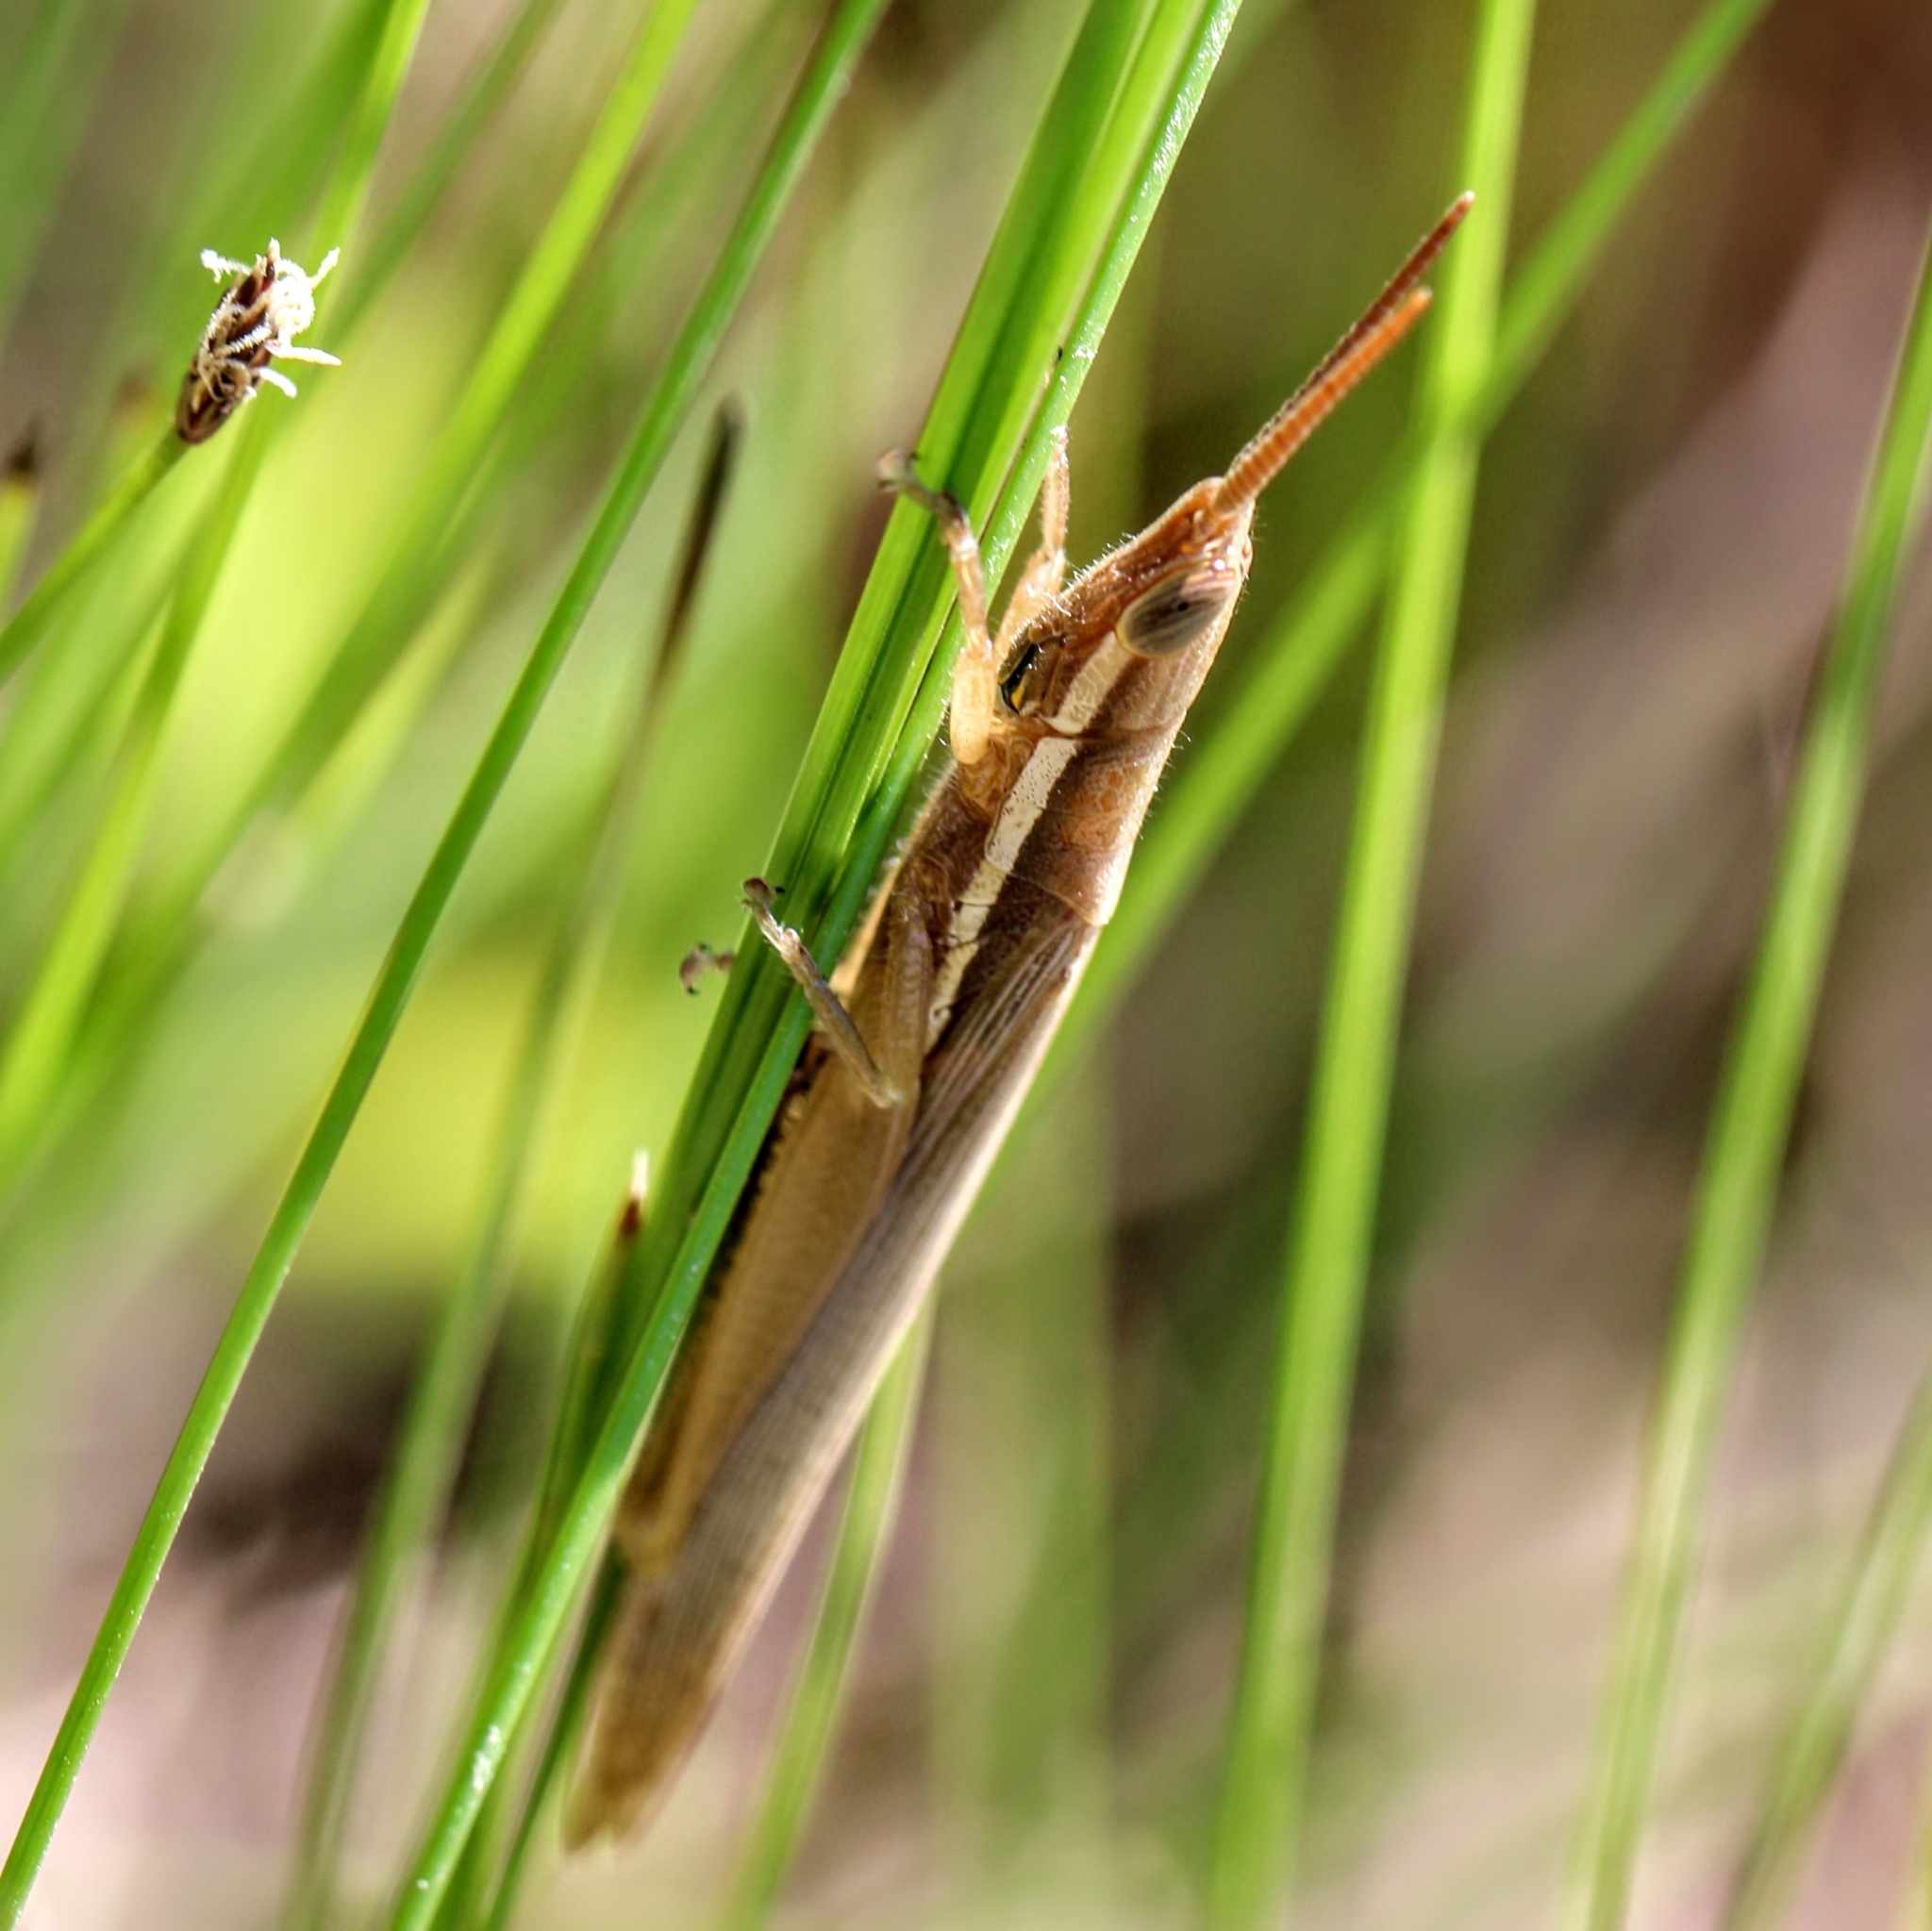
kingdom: Animalia
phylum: Arthropoda
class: Insecta
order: Orthoptera
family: Acrididae
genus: Leptysma
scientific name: Leptysma marginicollis
